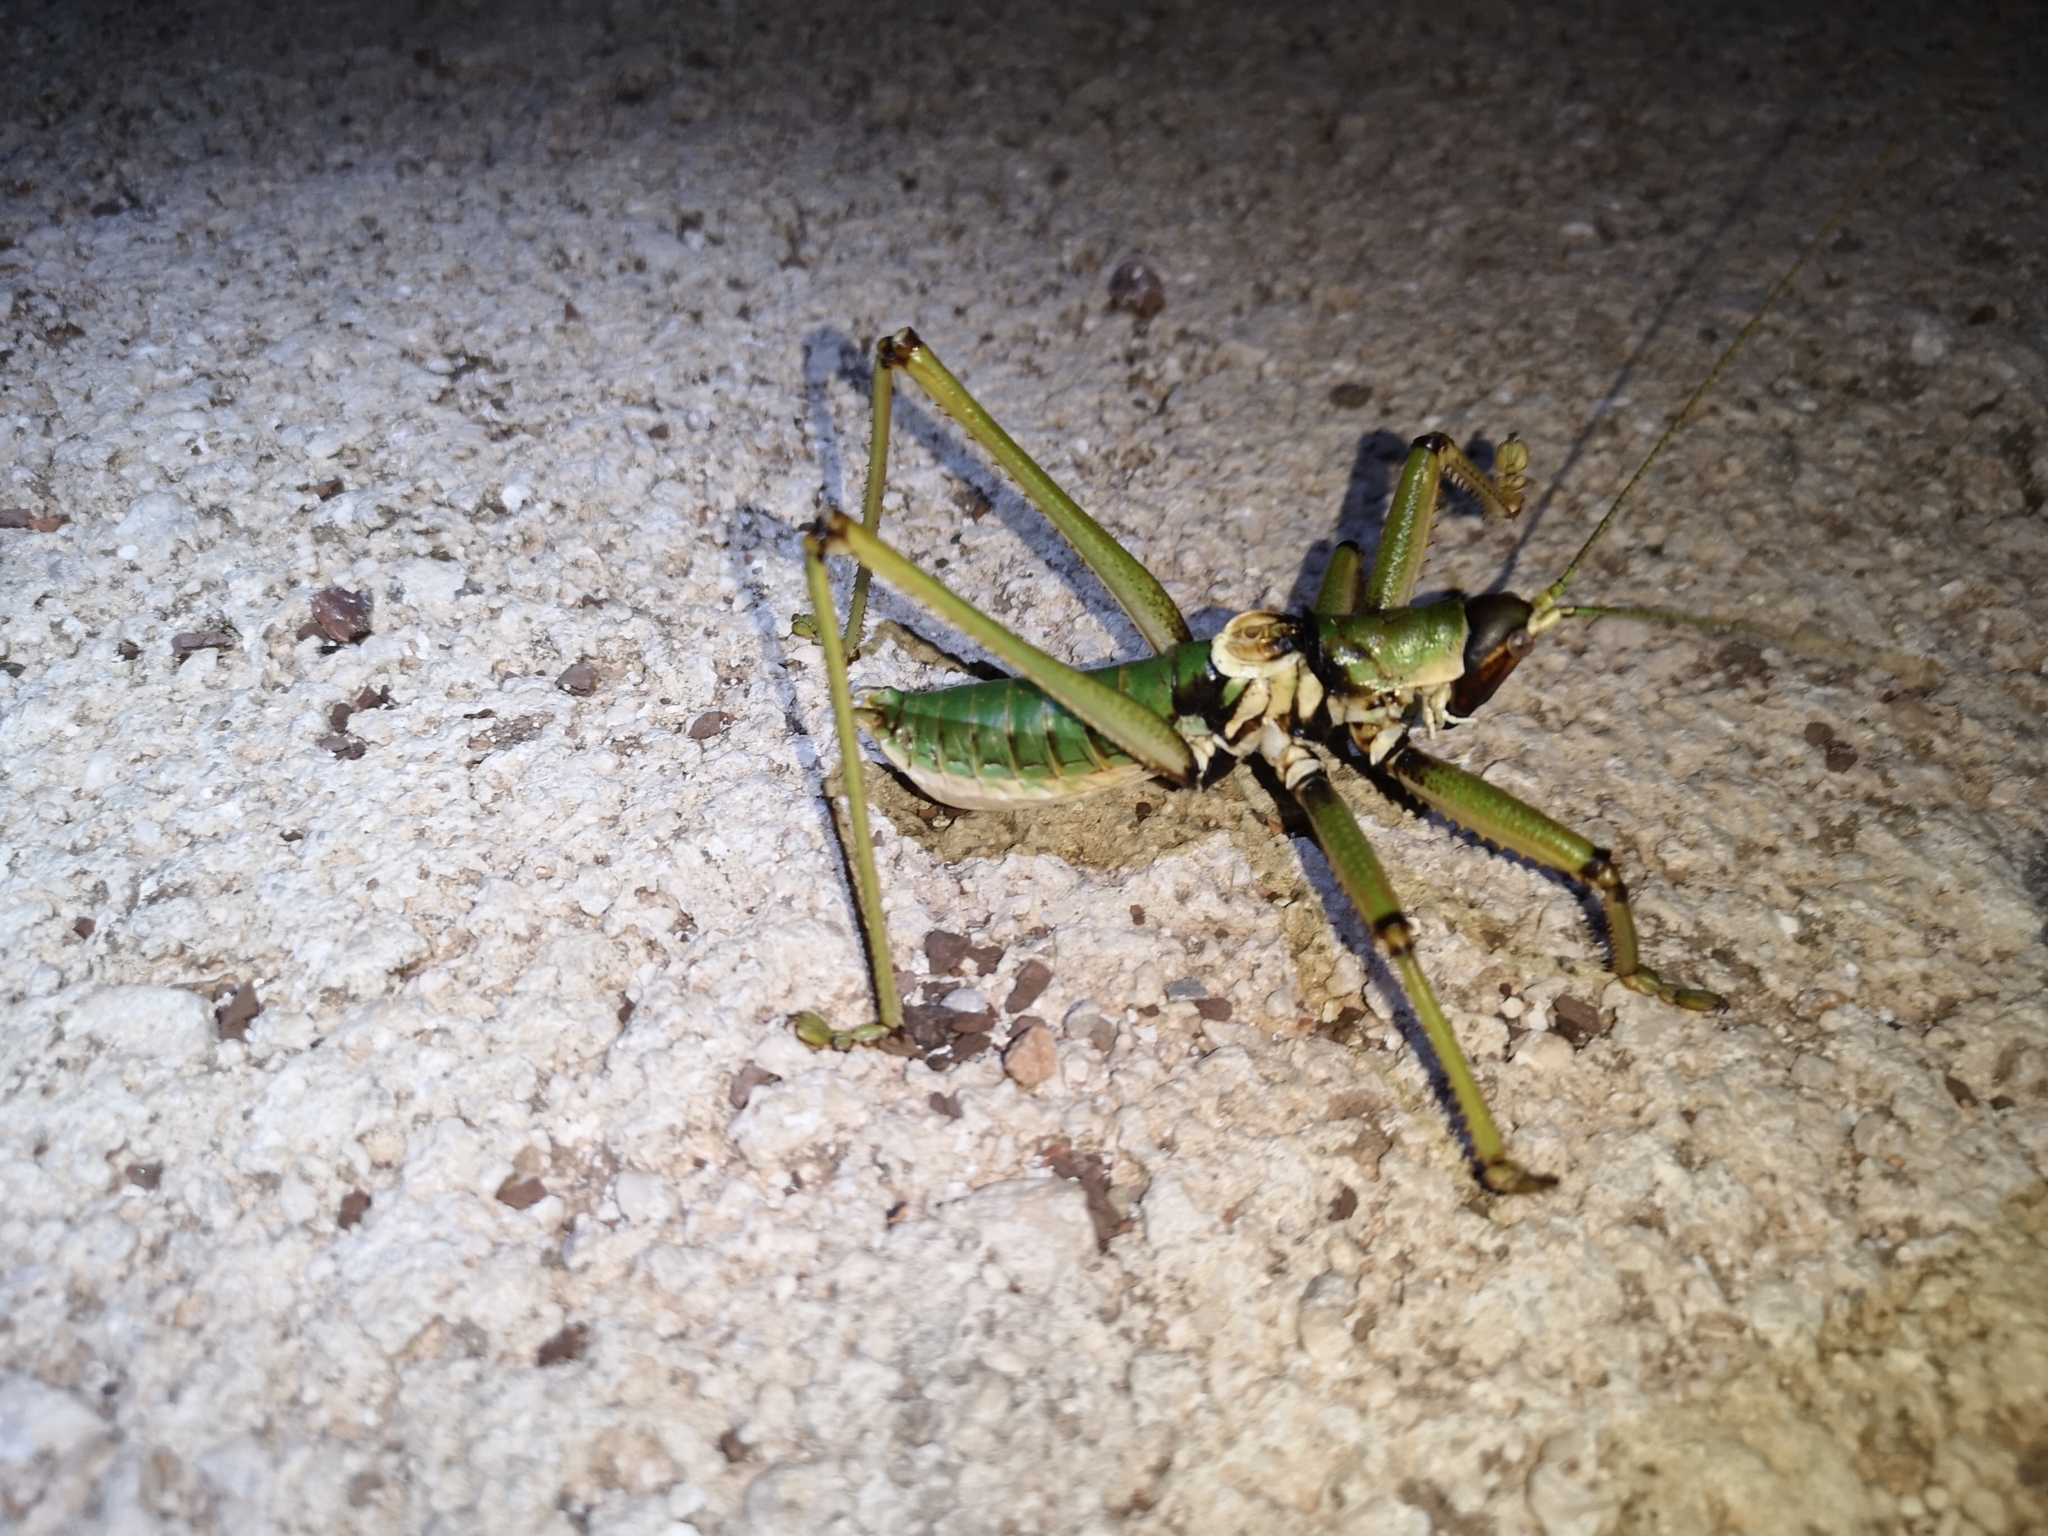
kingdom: Animalia
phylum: Arthropoda
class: Insecta
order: Orthoptera
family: Tettigoniidae
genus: Saga
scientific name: Saga natoliae
